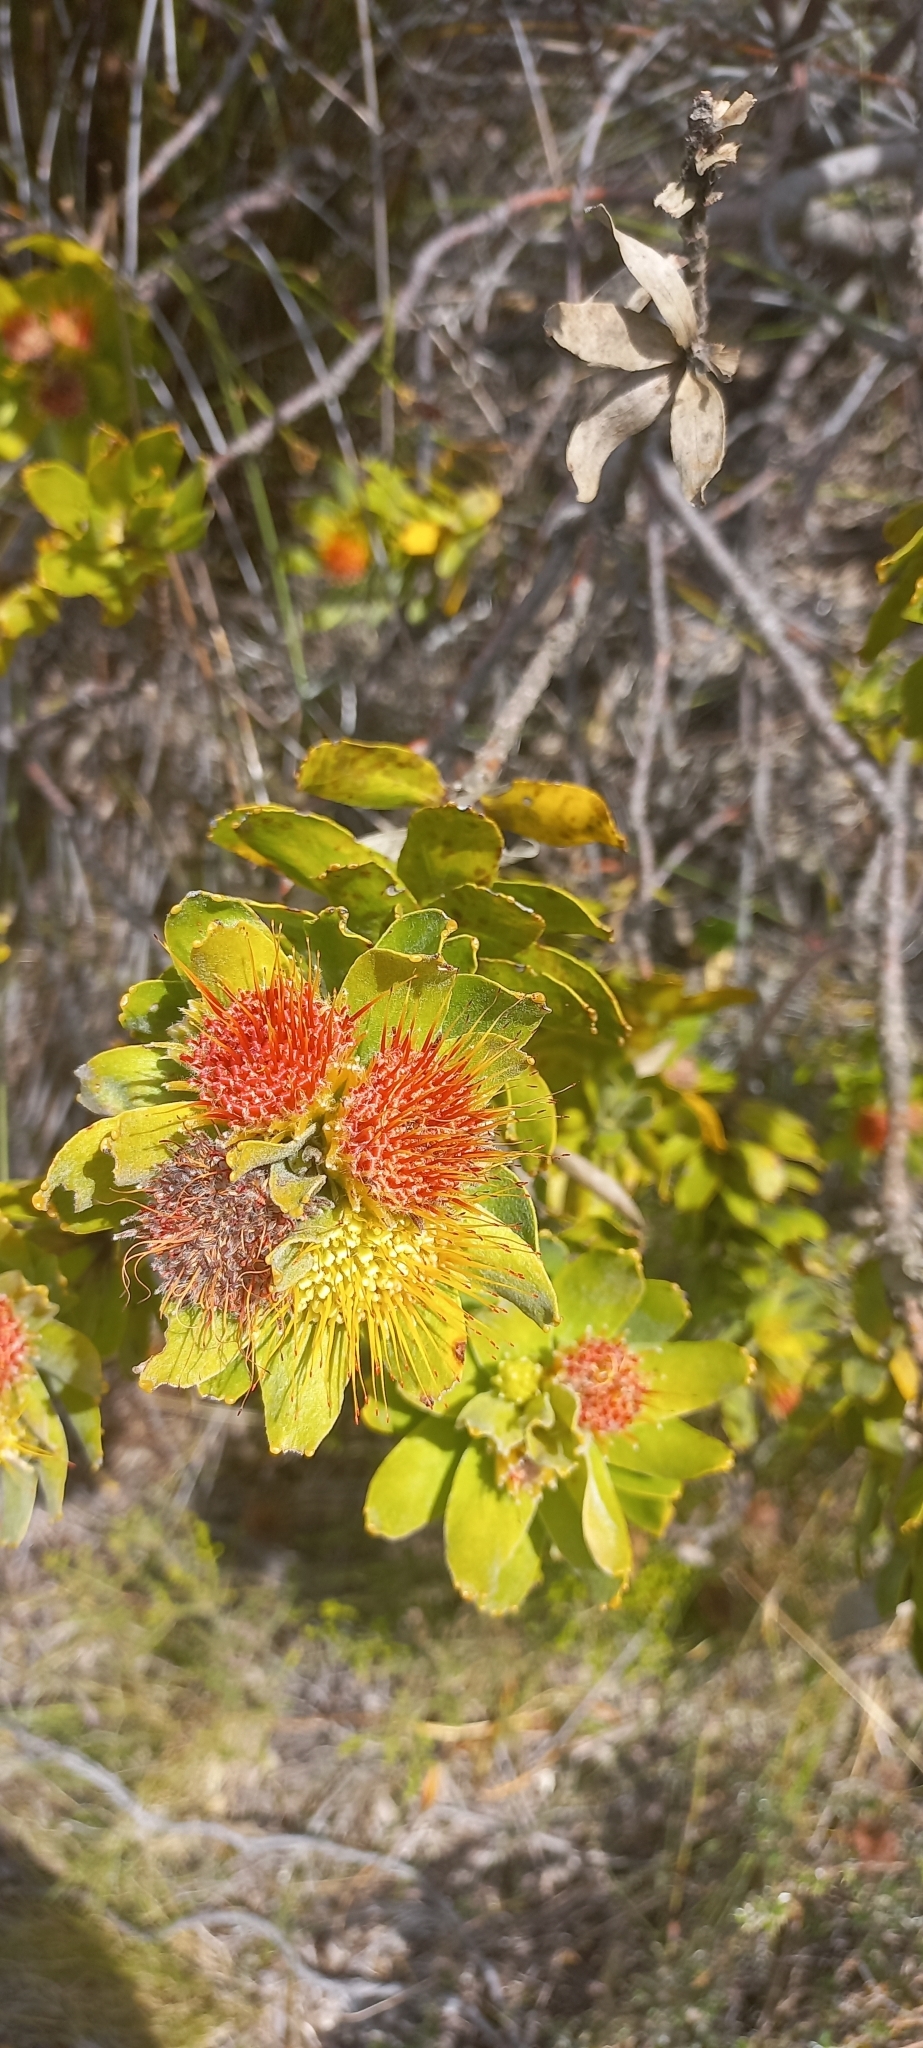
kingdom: Plantae
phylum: Tracheophyta
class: Magnoliopsida
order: Proteales
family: Proteaceae
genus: Leucospermum
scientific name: Leucospermum oleifolium
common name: Matches
